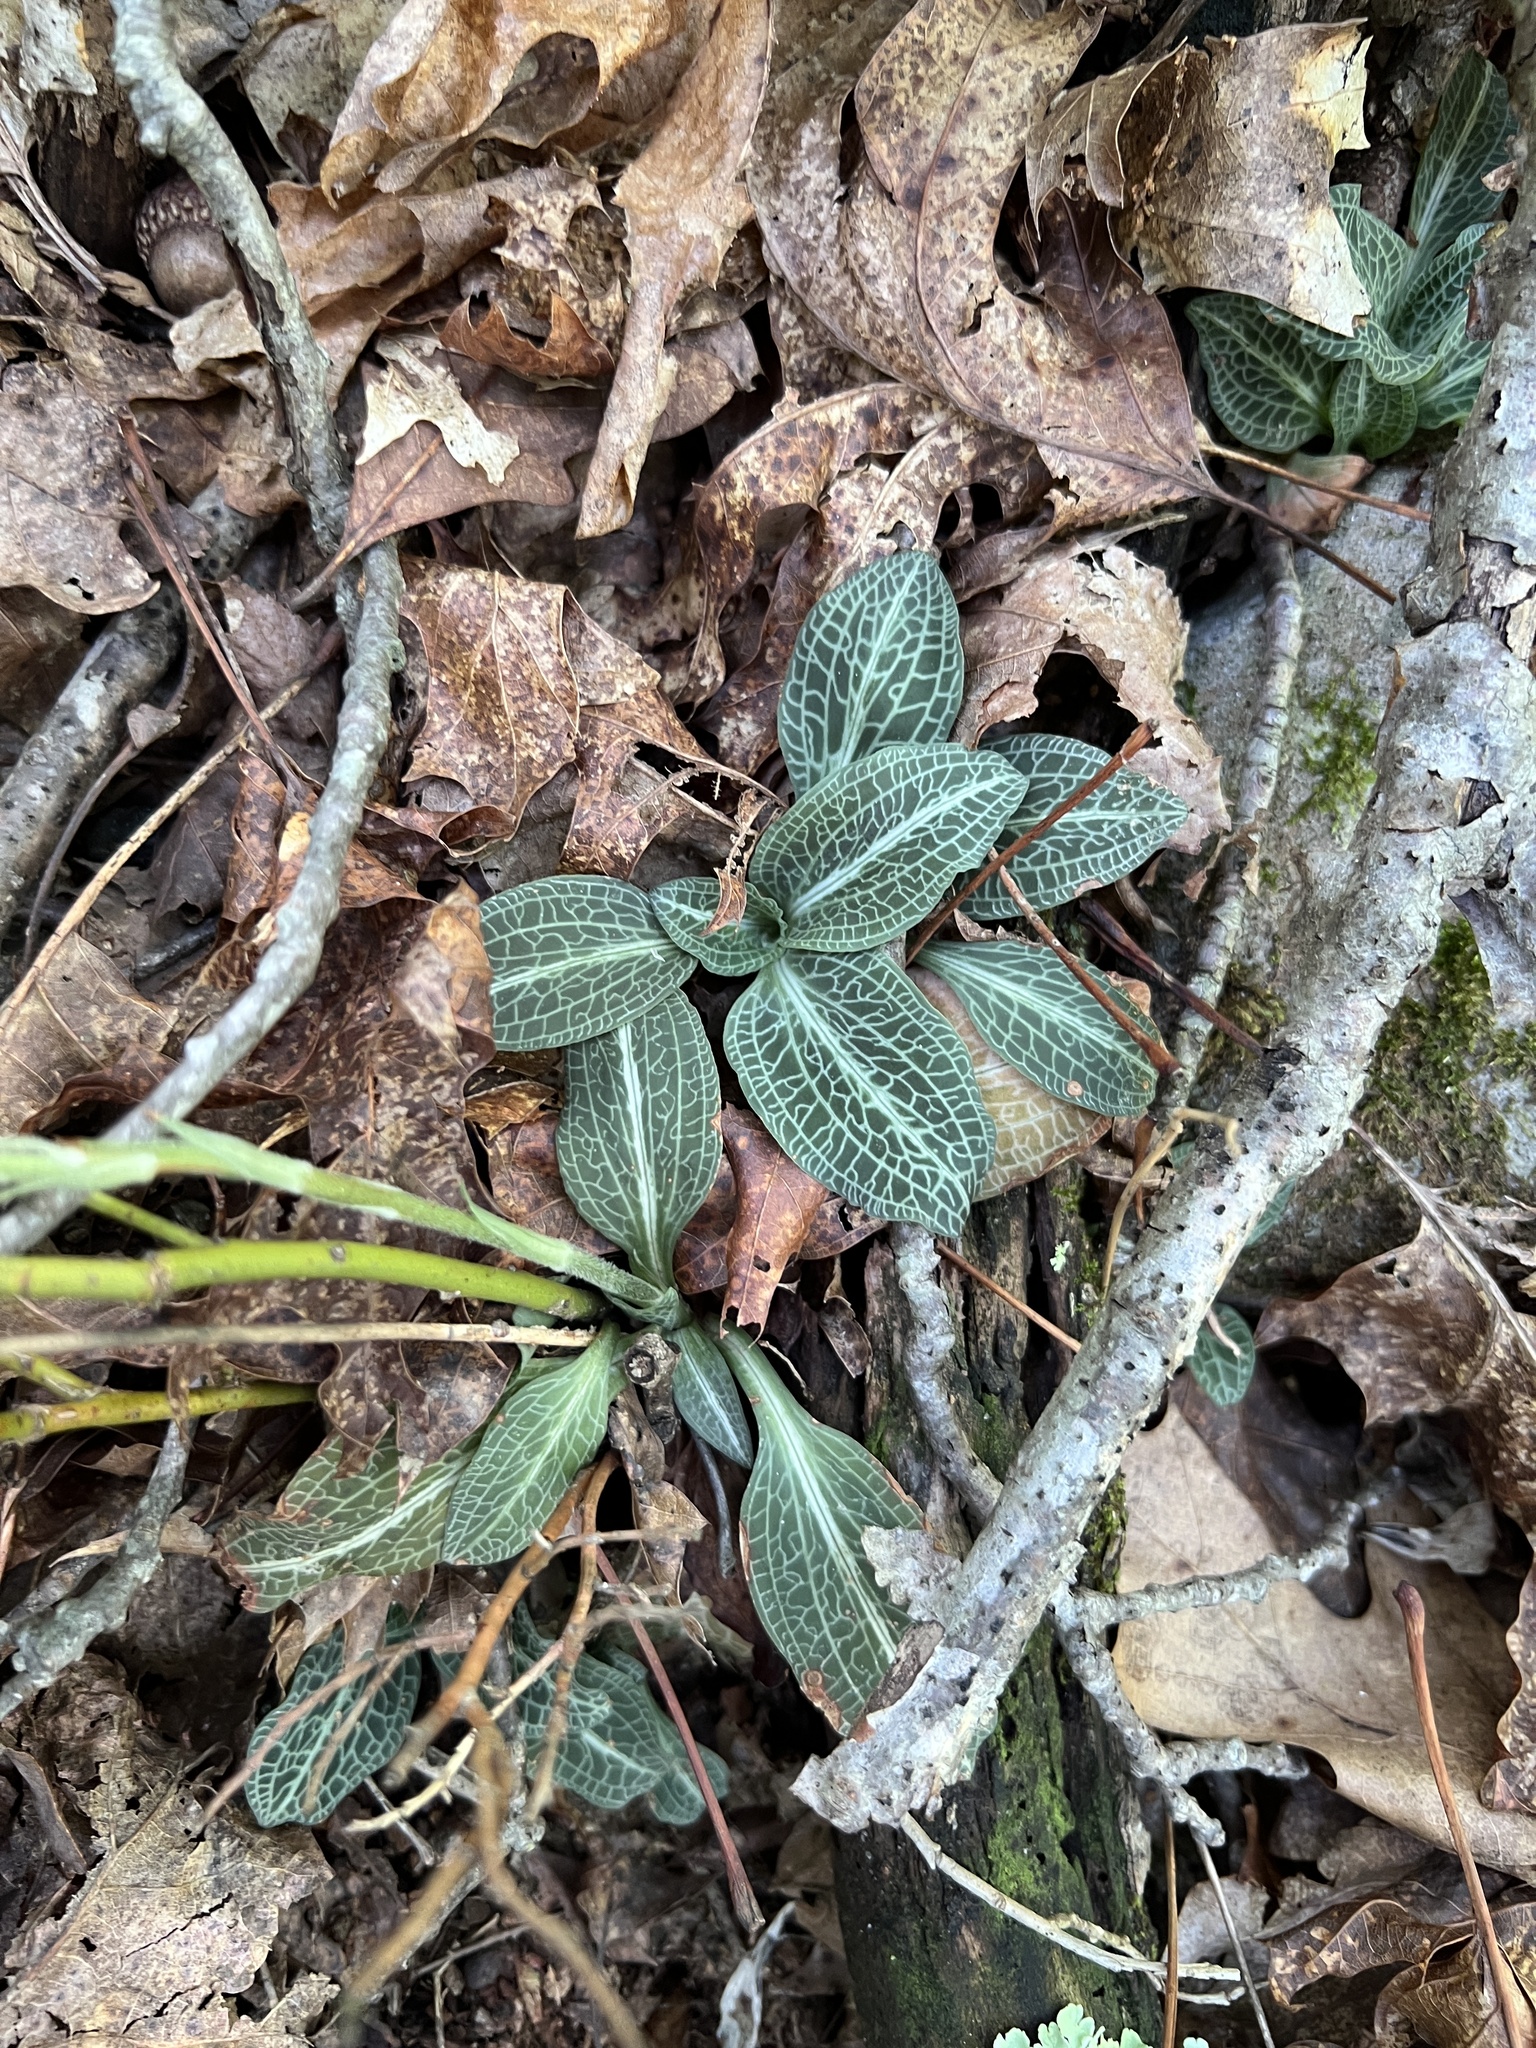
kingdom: Plantae
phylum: Tracheophyta
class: Liliopsida
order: Asparagales
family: Orchidaceae
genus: Goodyera
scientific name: Goodyera pubescens
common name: Downy rattlesnake-plantain
